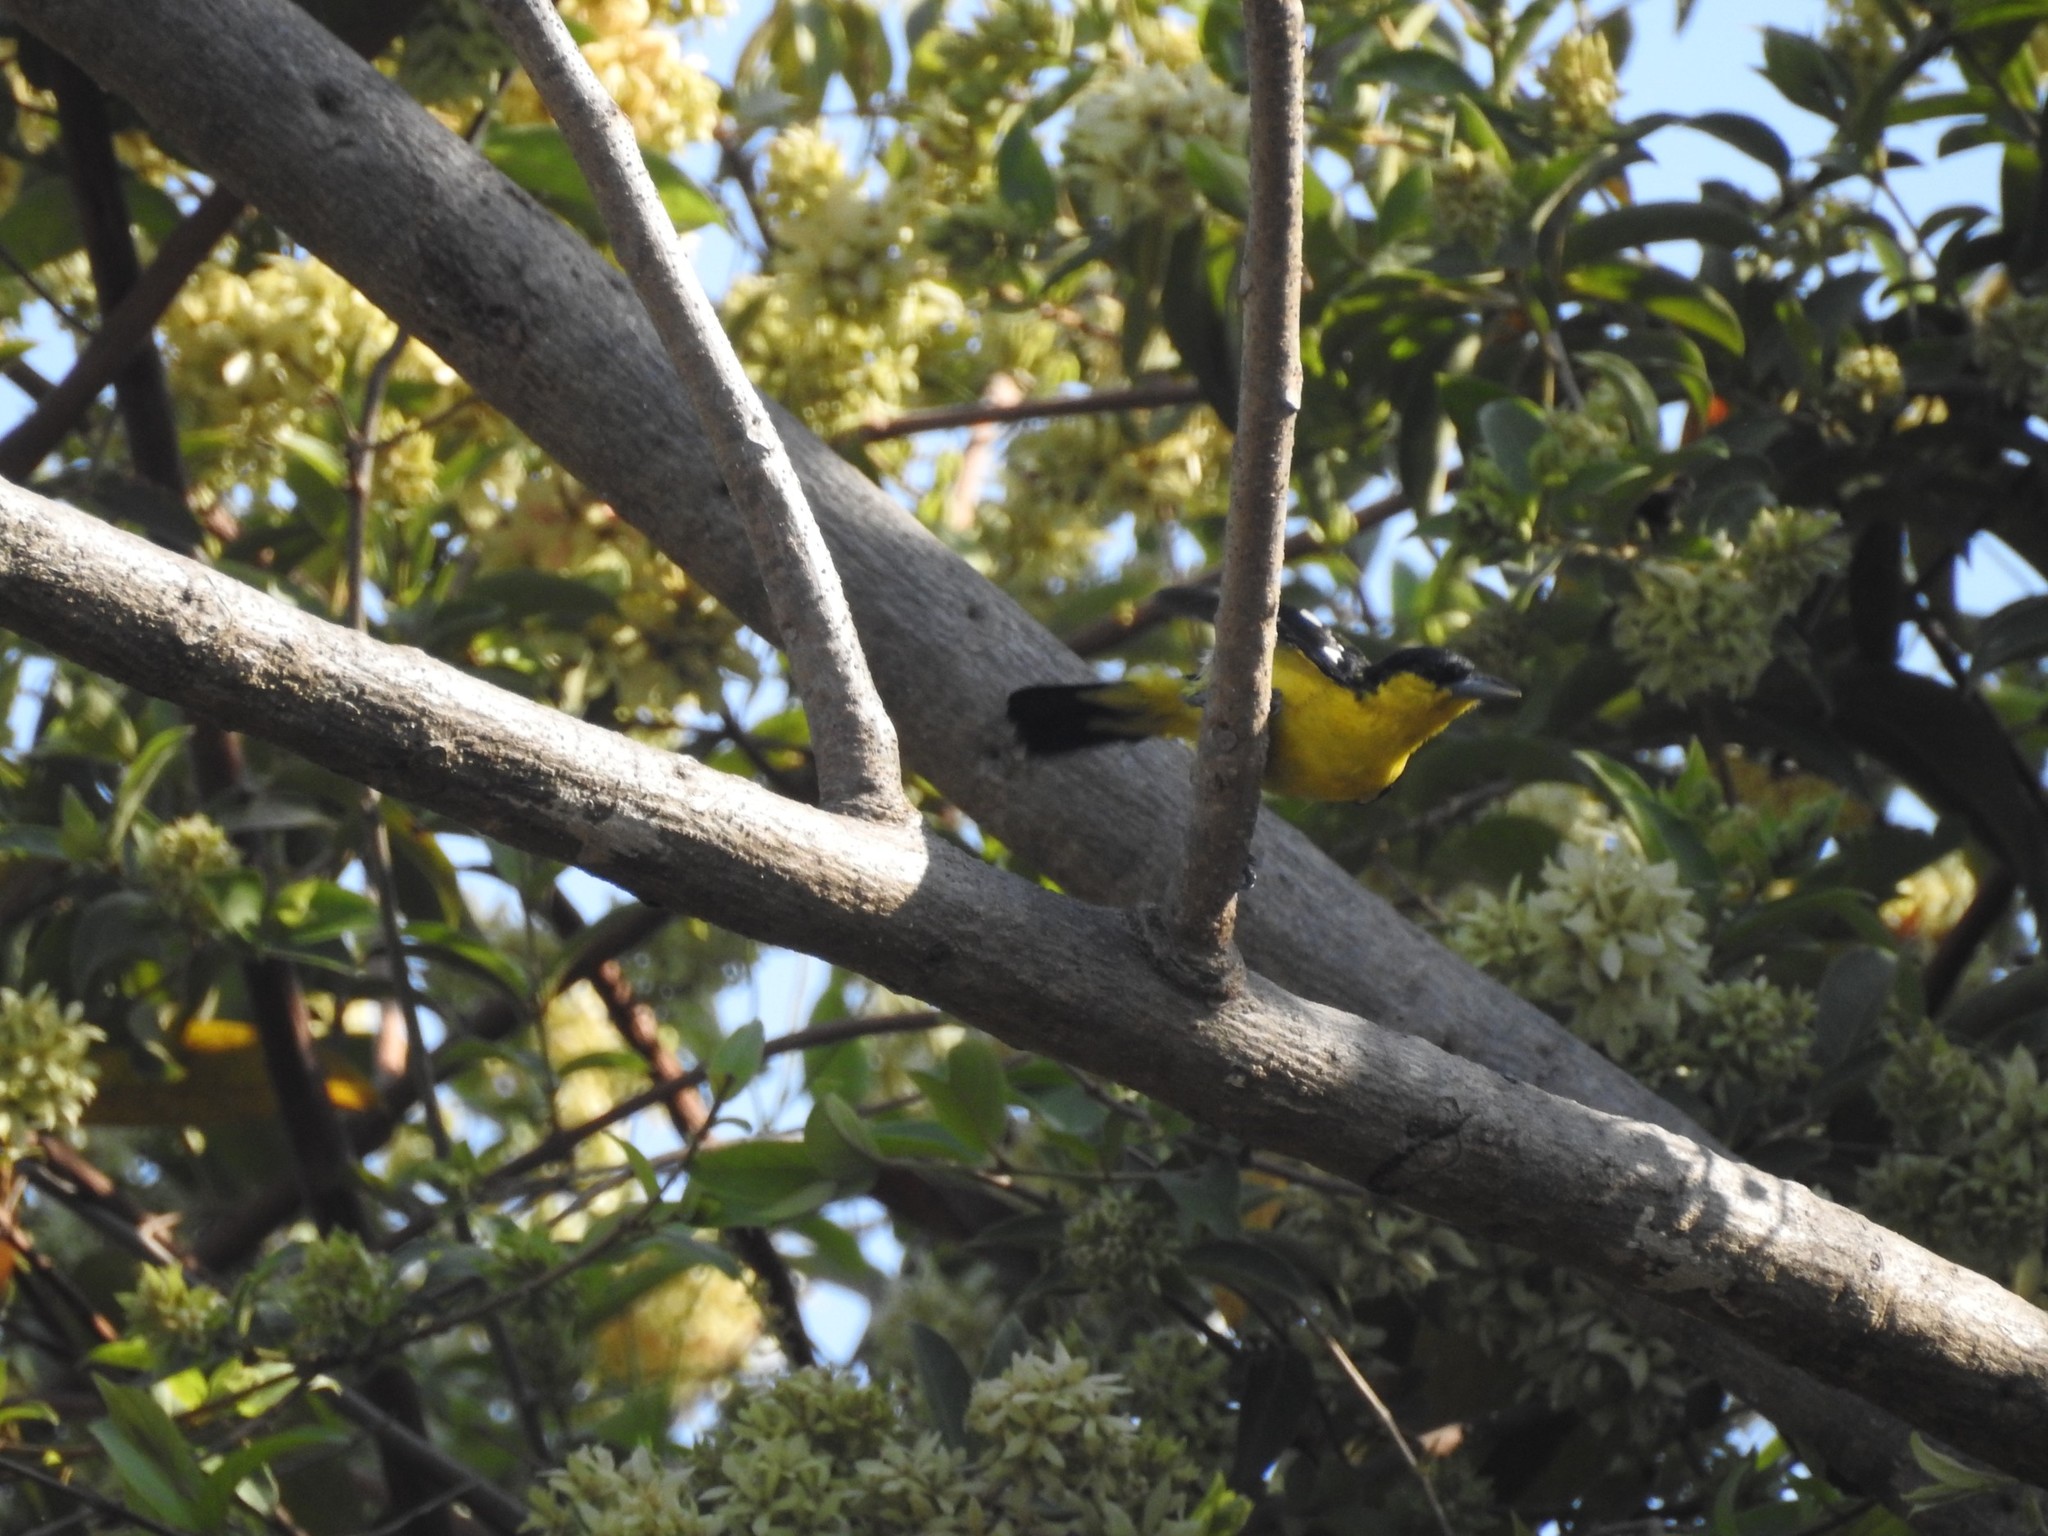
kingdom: Animalia
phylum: Chordata
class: Aves
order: Passeriformes
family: Aegithinidae
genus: Aegithina
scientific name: Aegithina tiphia
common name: Common iora
